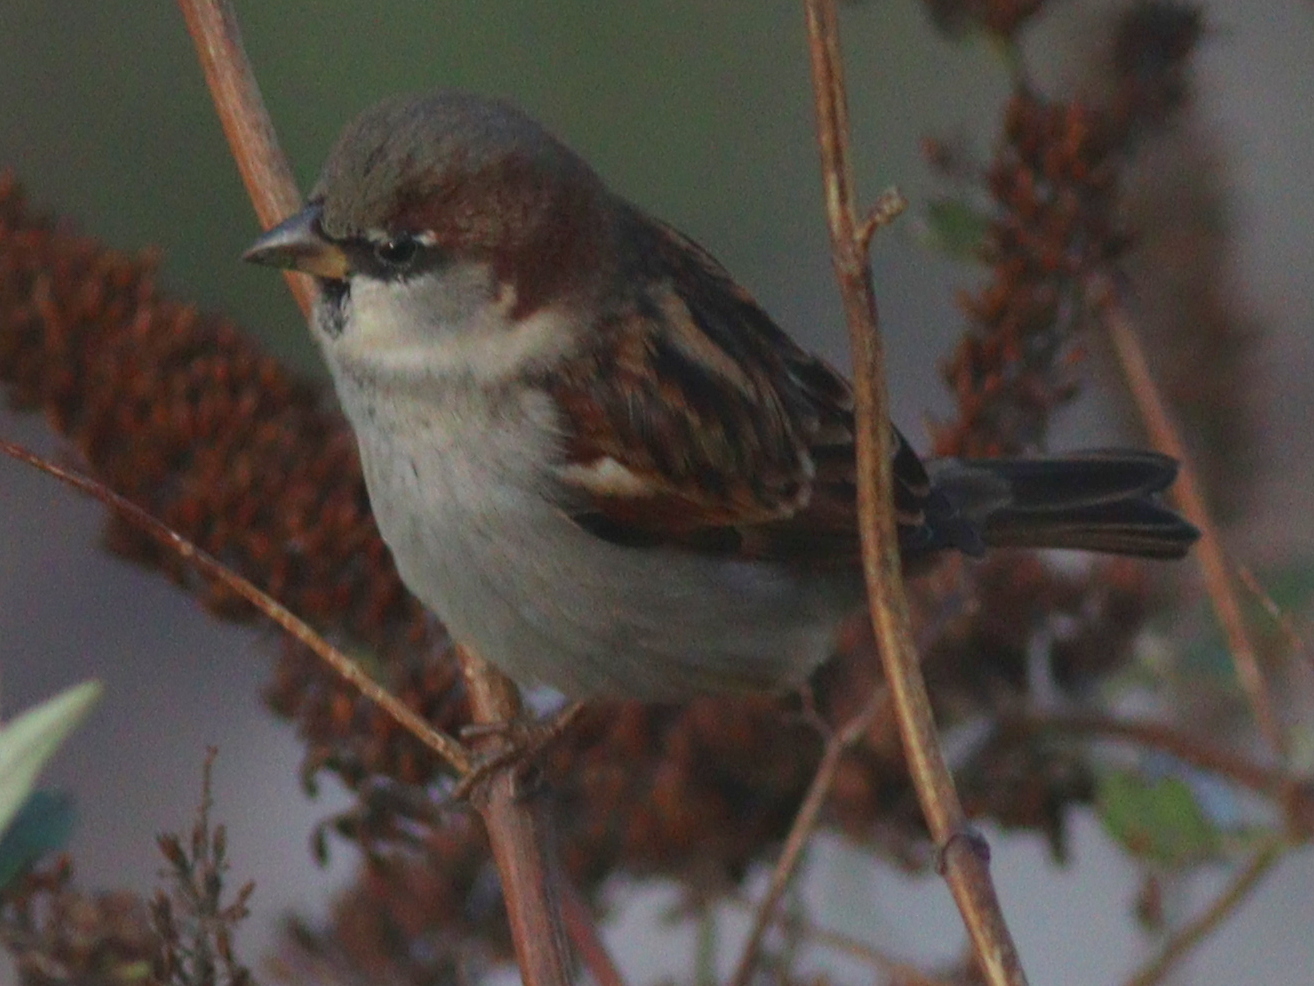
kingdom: Animalia
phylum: Chordata
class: Aves
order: Passeriformes
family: Passeridae
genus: Passer
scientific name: Passer domesticus
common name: House sparrow
